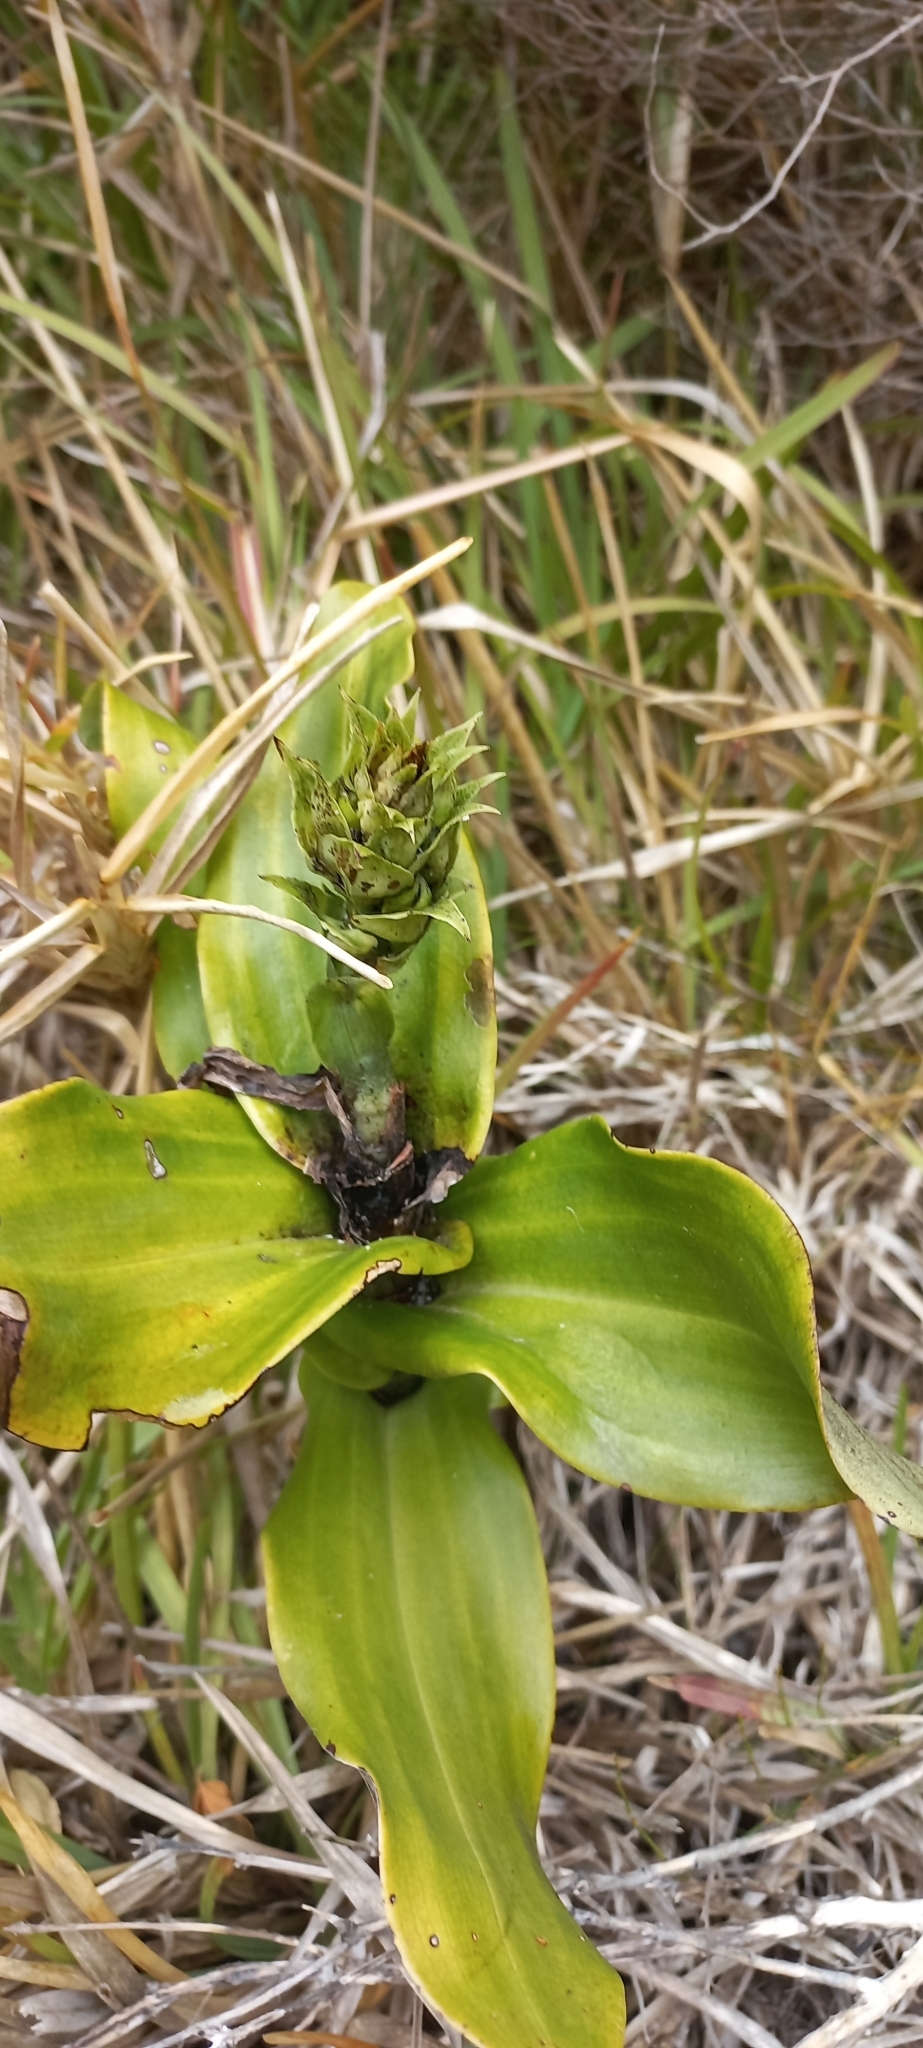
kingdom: Plantae
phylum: Tracheophyta
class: Liliopsida
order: Asparagales
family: Orchidaceae
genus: Bonatea
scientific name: Bonatea speciosa
